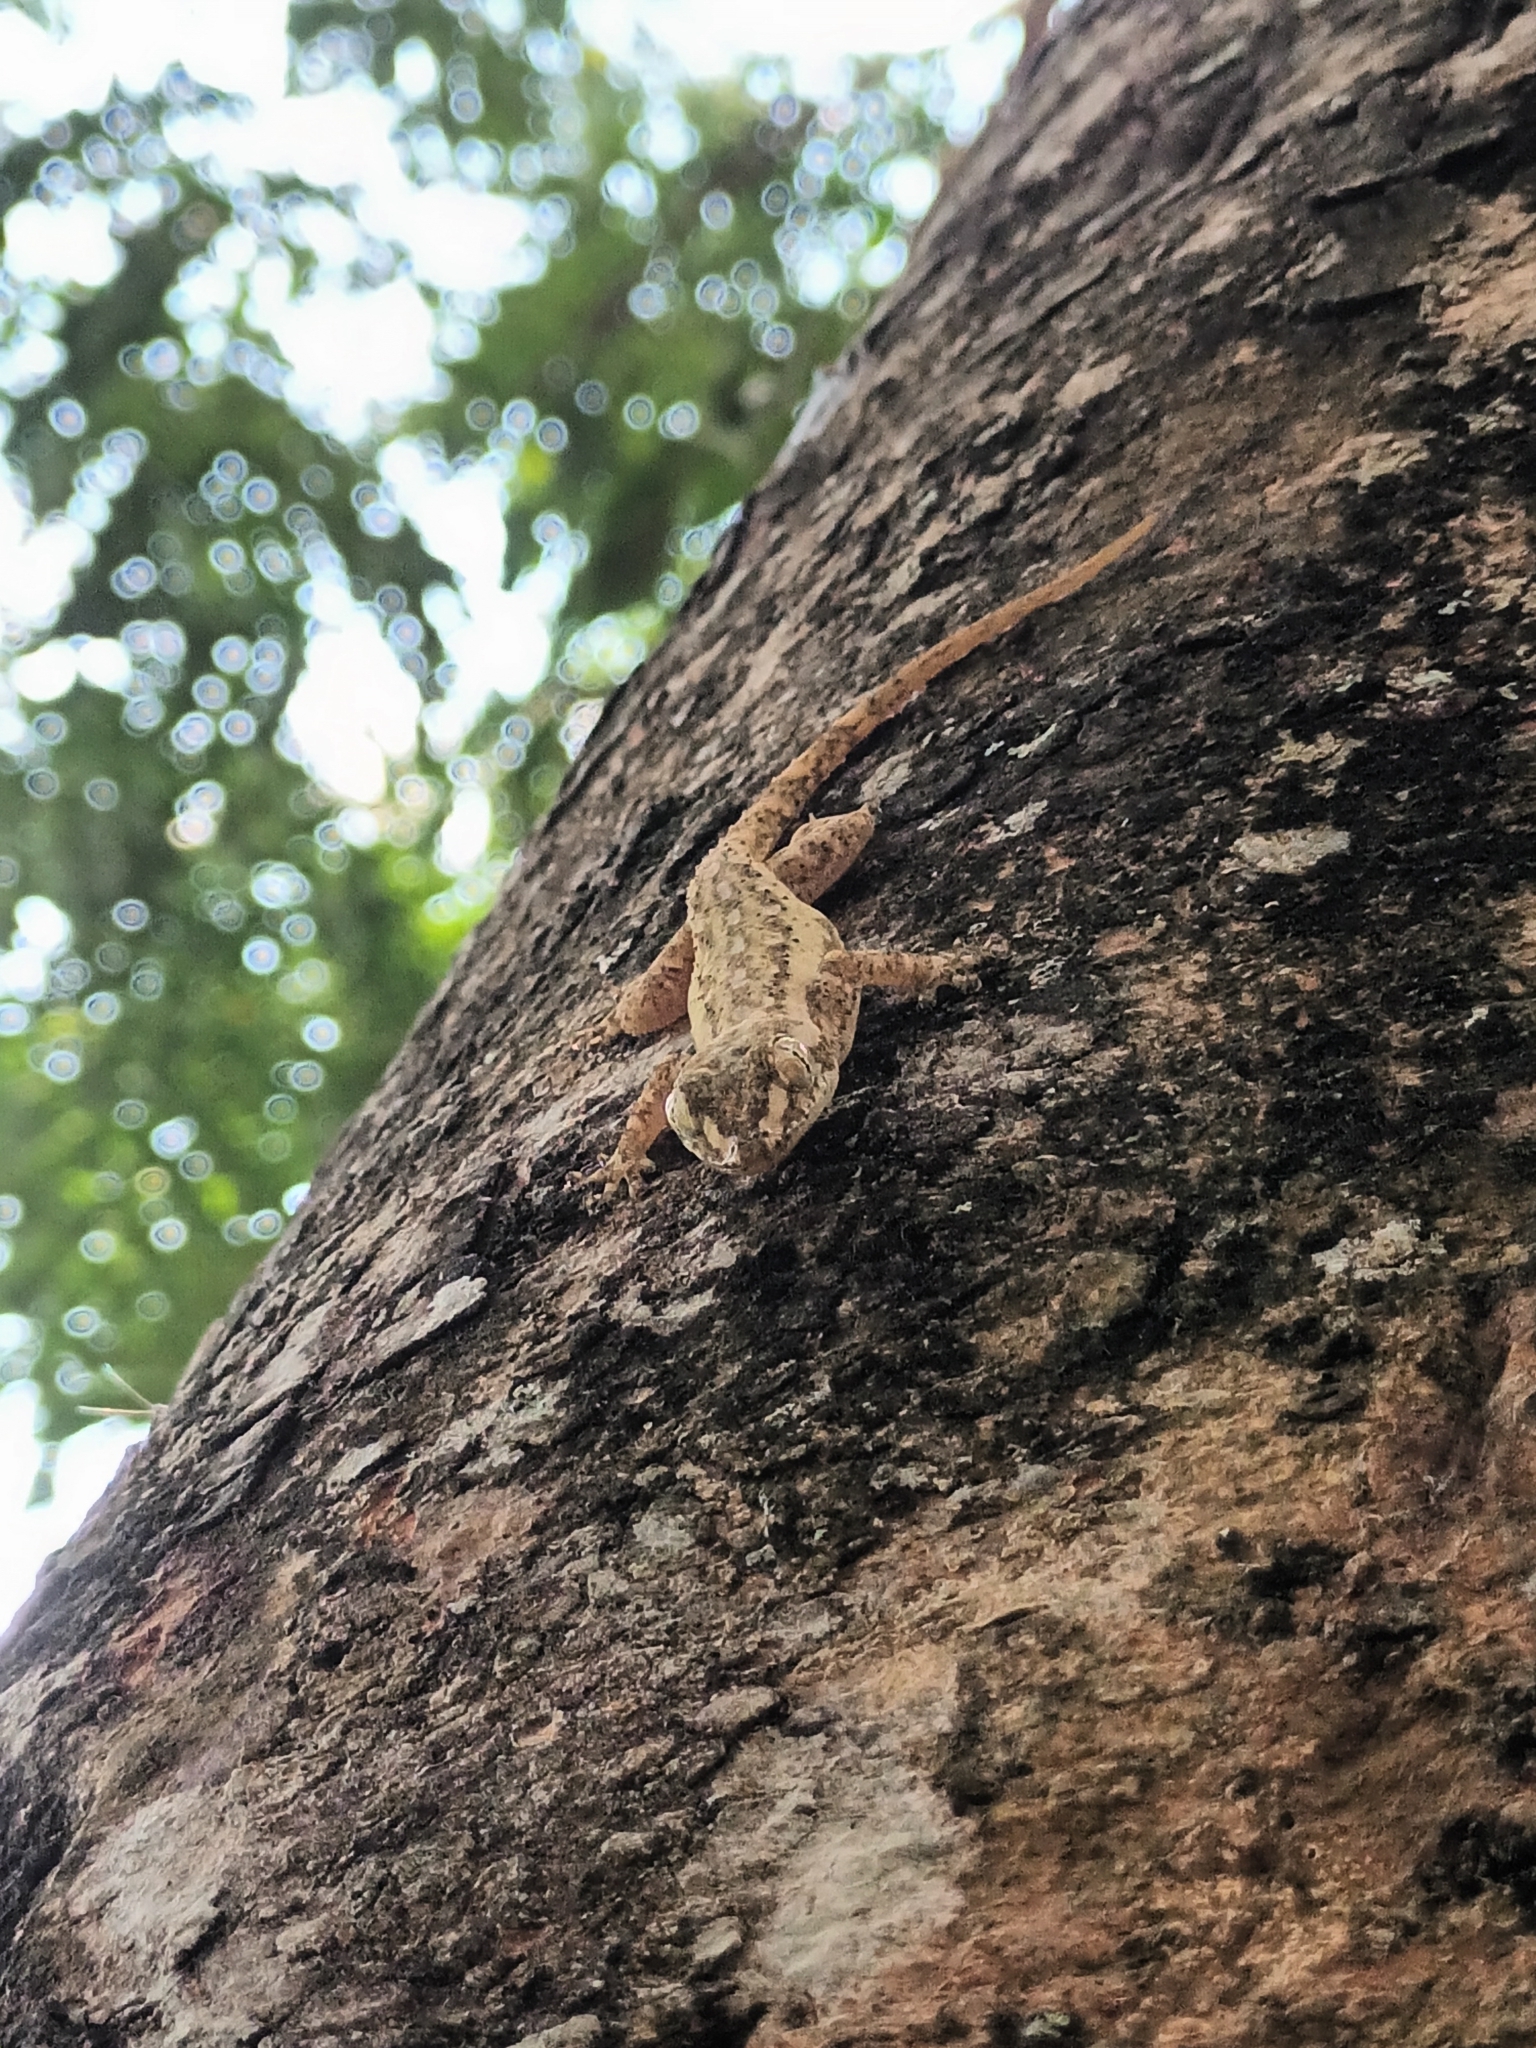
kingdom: Animalia
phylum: Chordata
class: Squamata
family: Gekkonidae
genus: Hemidactylus
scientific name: Hemidactylus frenatus
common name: Common house gecko
